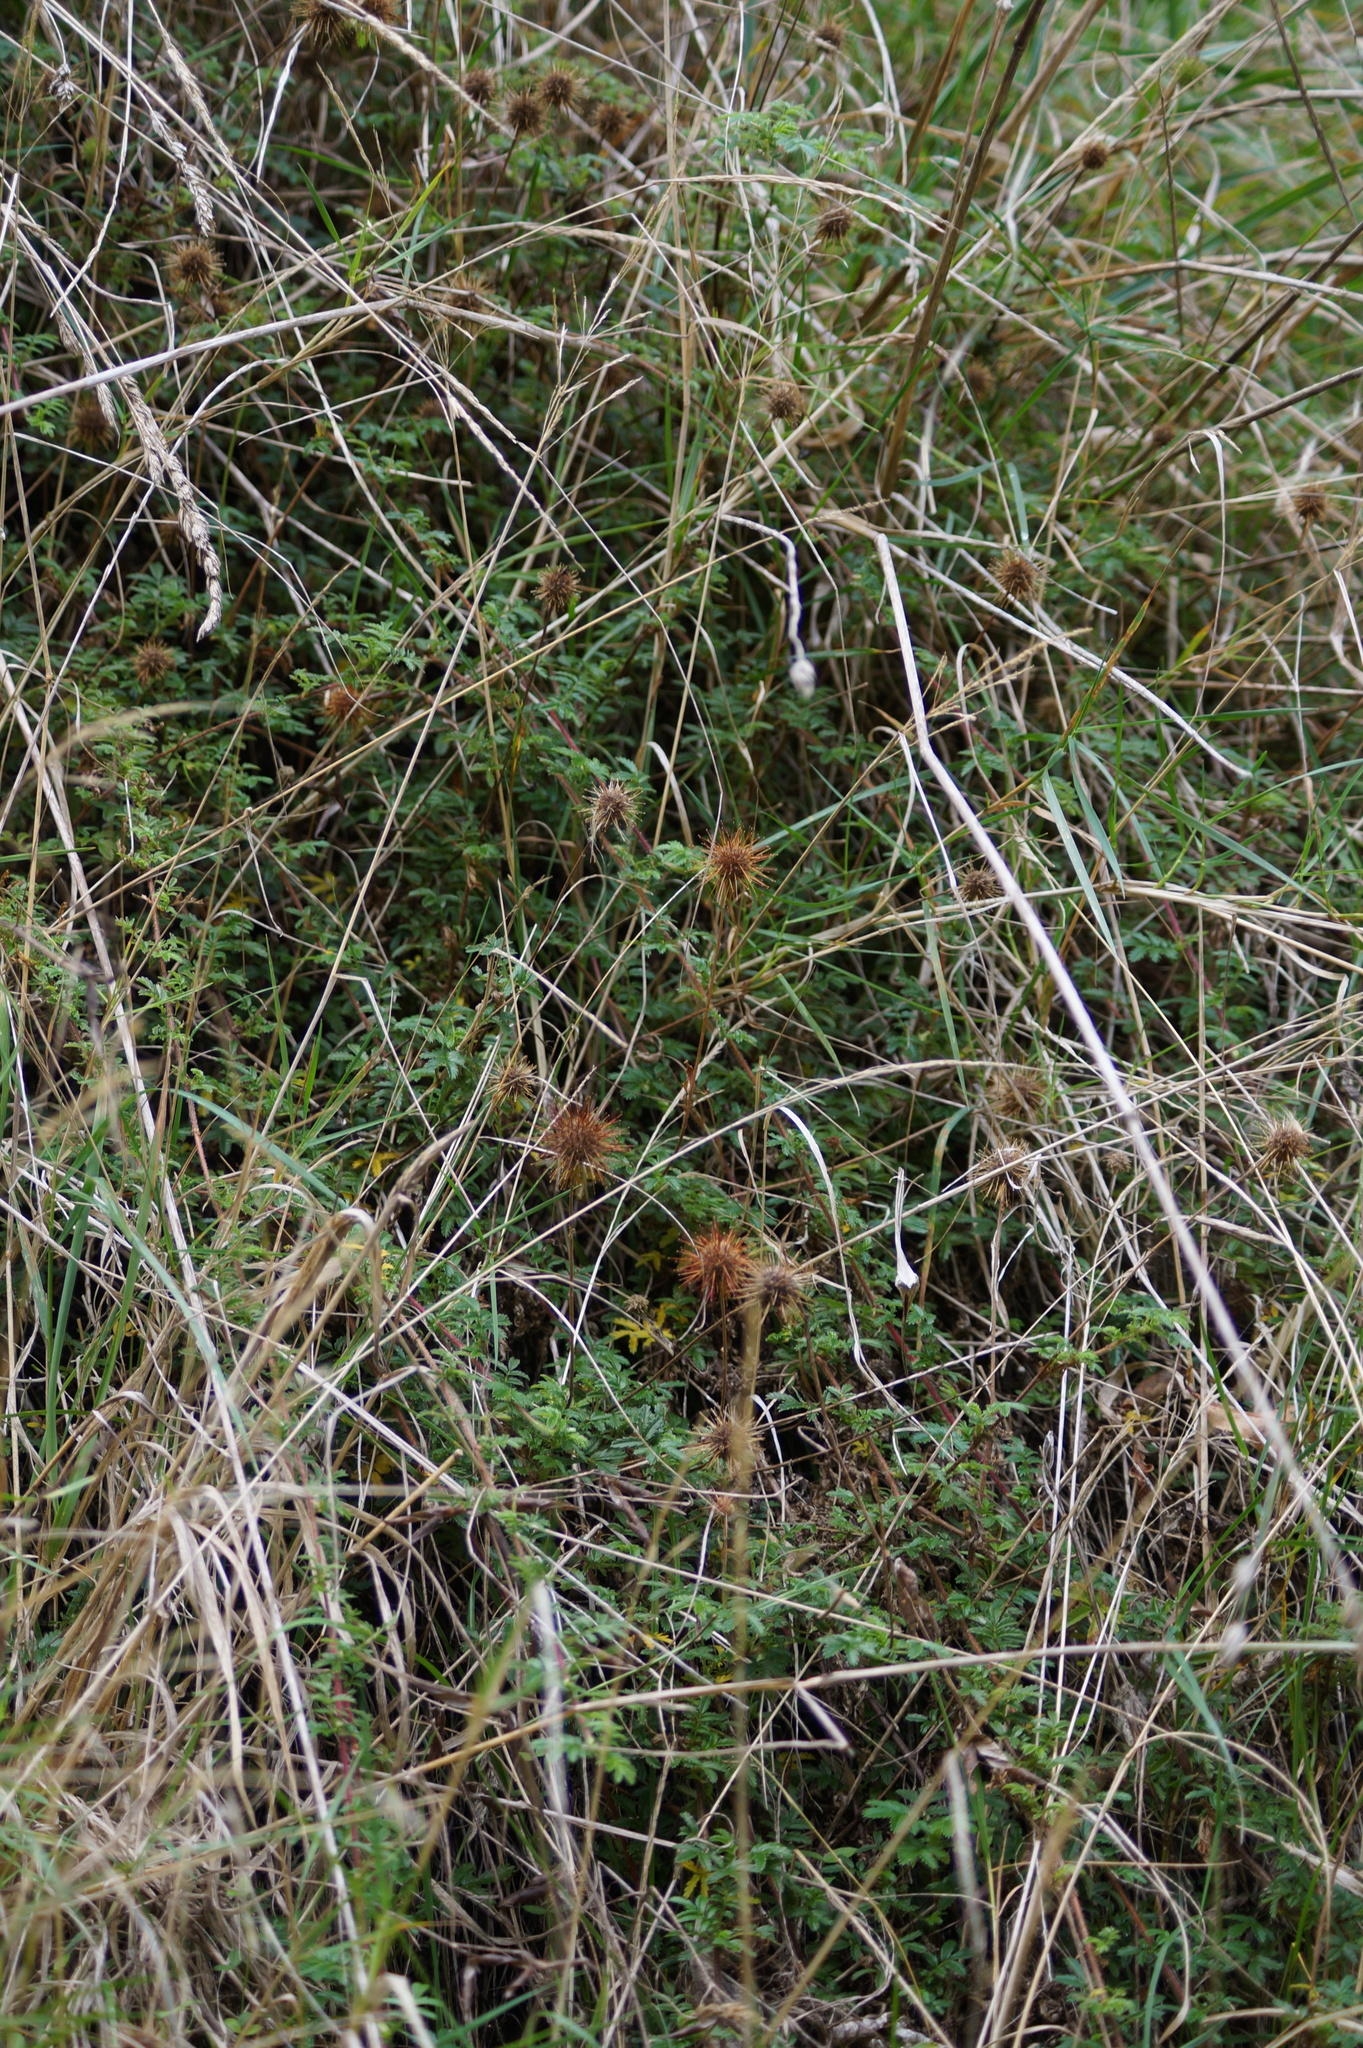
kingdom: Plantae
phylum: Tracheophyta
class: Magnoliopsida
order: Rosales
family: Rosaceae
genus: Acaena
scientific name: Acaena anserinifolia
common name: Bronze pirri-pirri-bur
